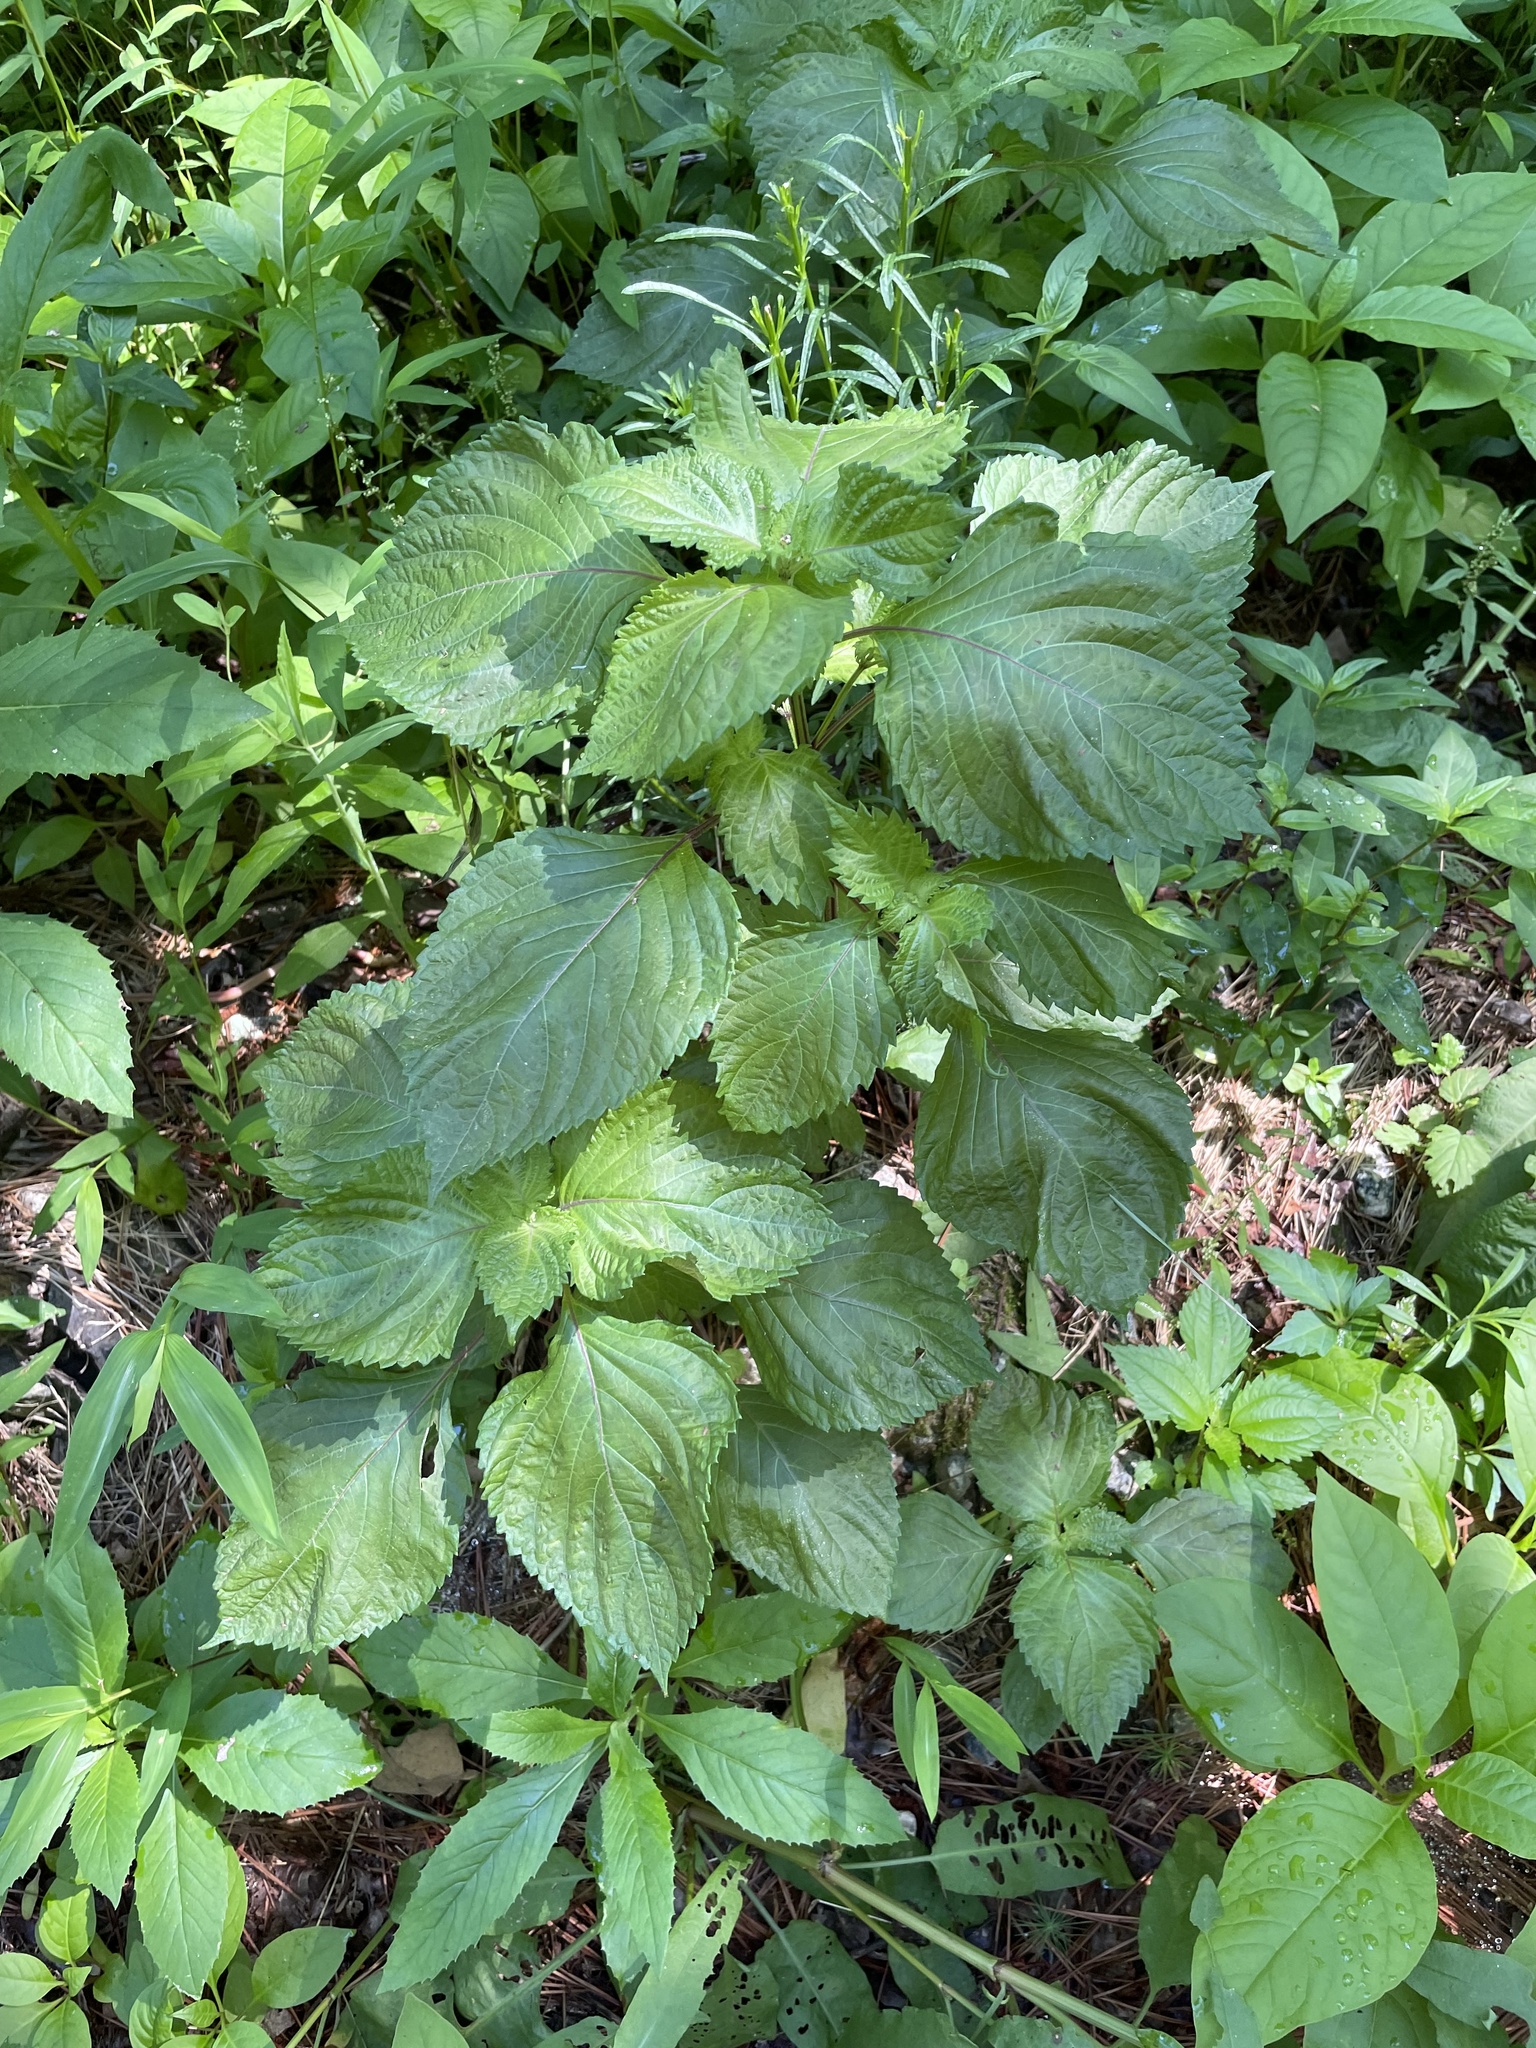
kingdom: Plantae
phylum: Tracheophyta
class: Magnoliopsida
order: Lamiales
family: Lamiaceae
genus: Perilla
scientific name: Perilla frutescens
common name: Perilla
